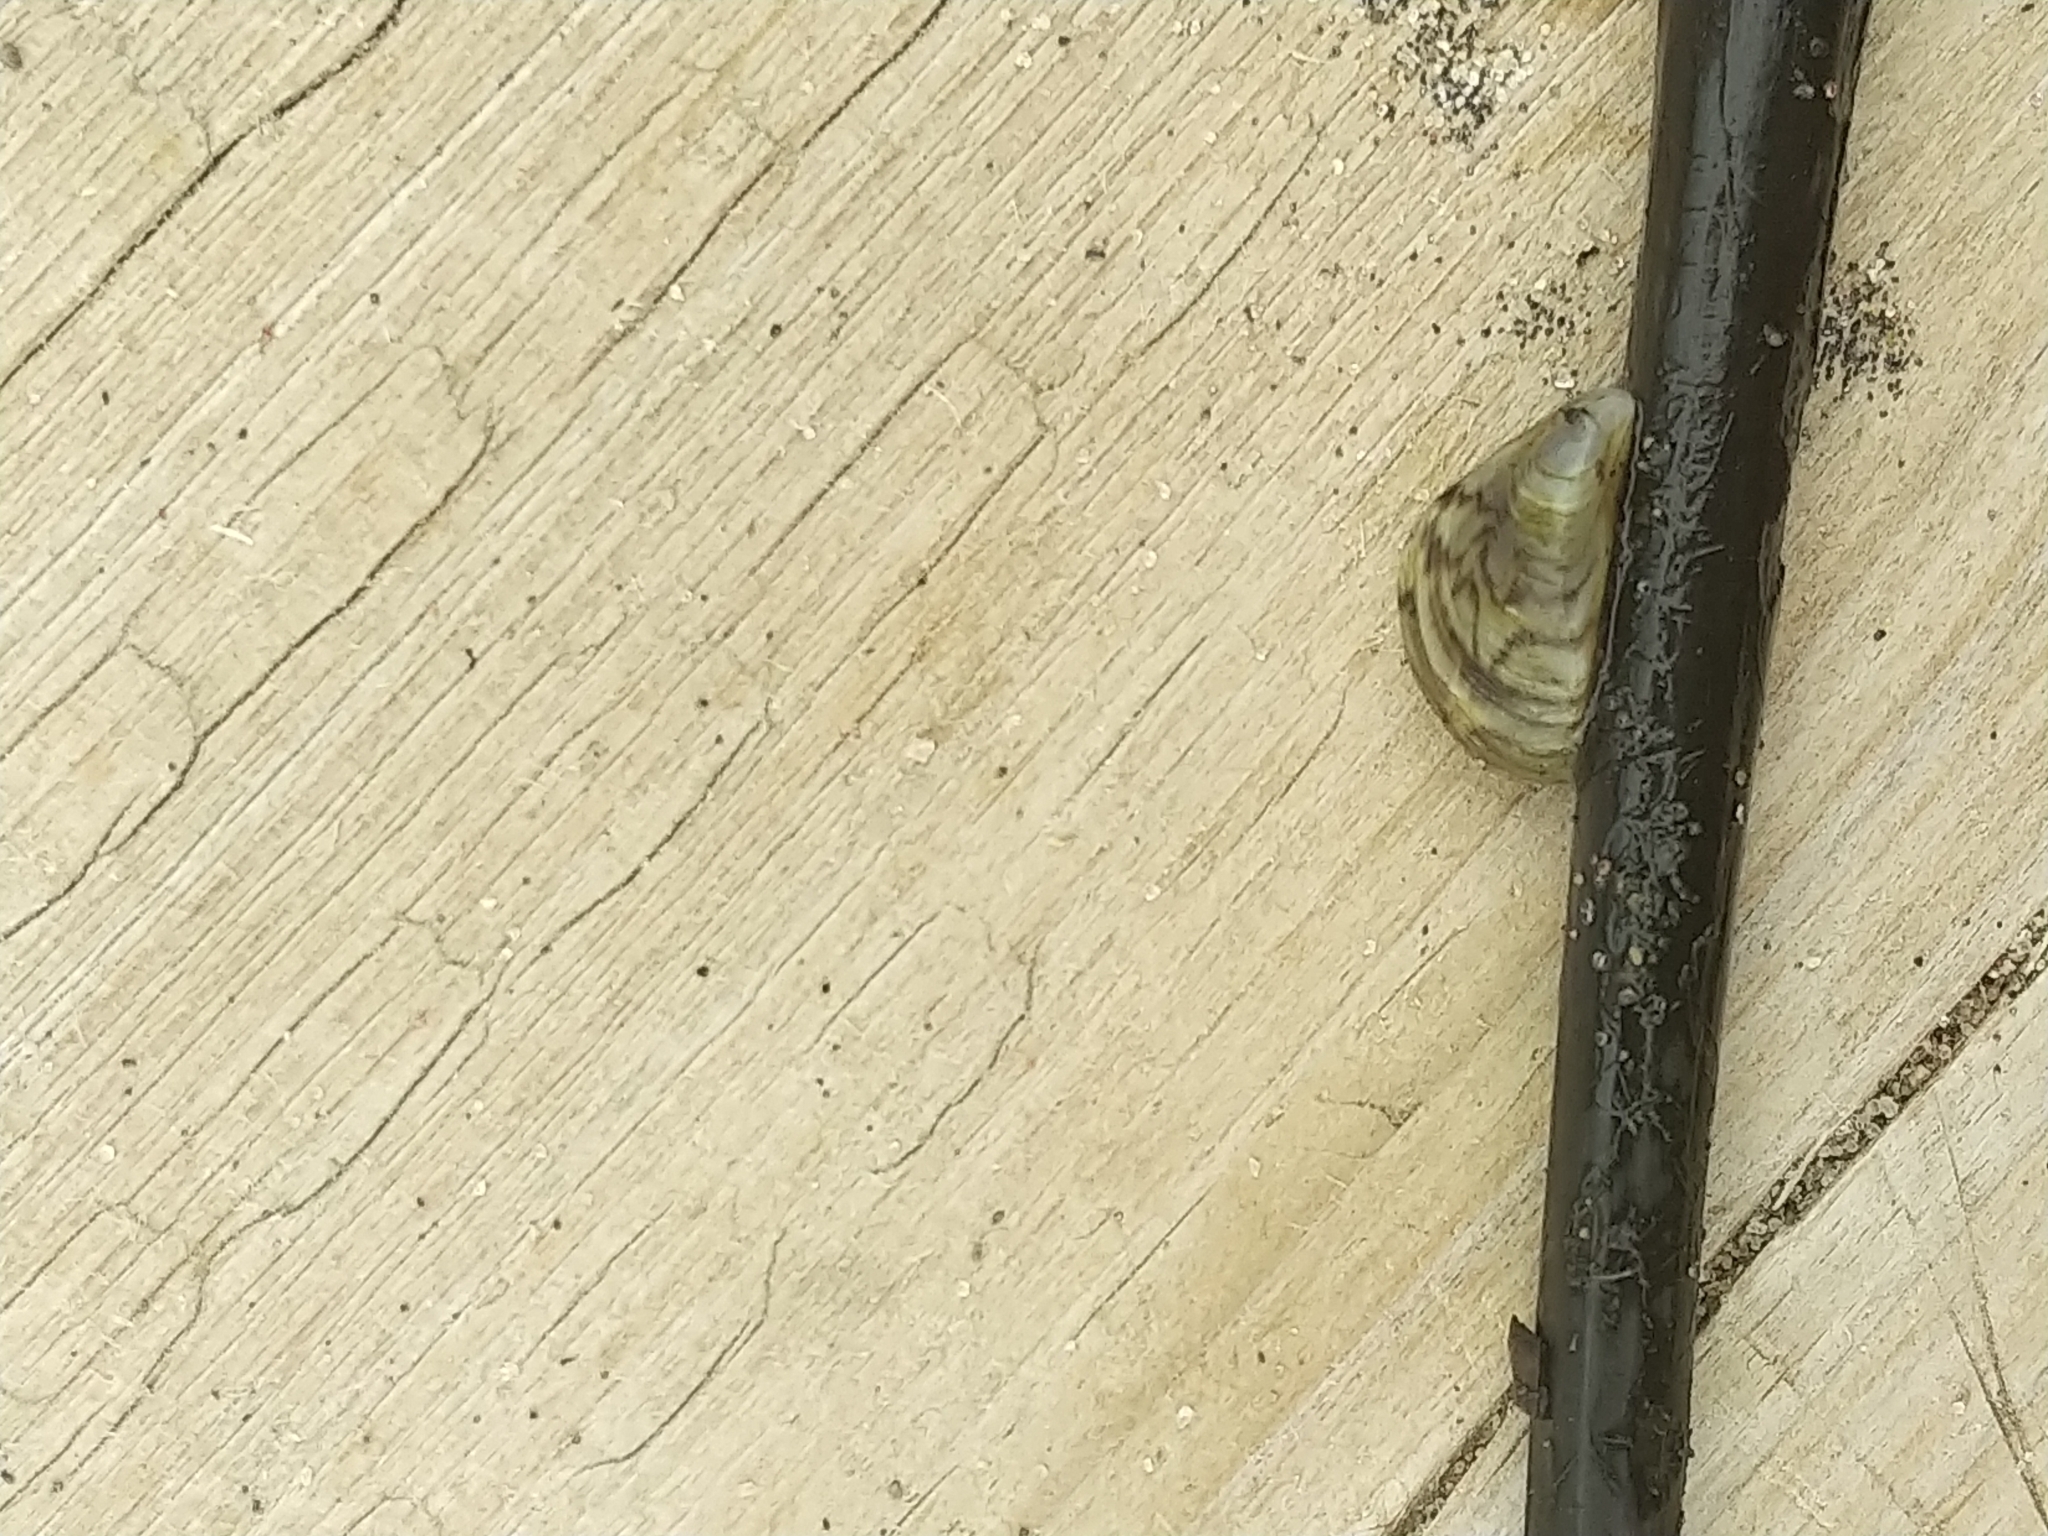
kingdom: Animalia
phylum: Mollusca
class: Bivalvia
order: Myida
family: Dreissenidae
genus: Dreissena
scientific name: Dreissena polymorpha
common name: Zebra mussel
